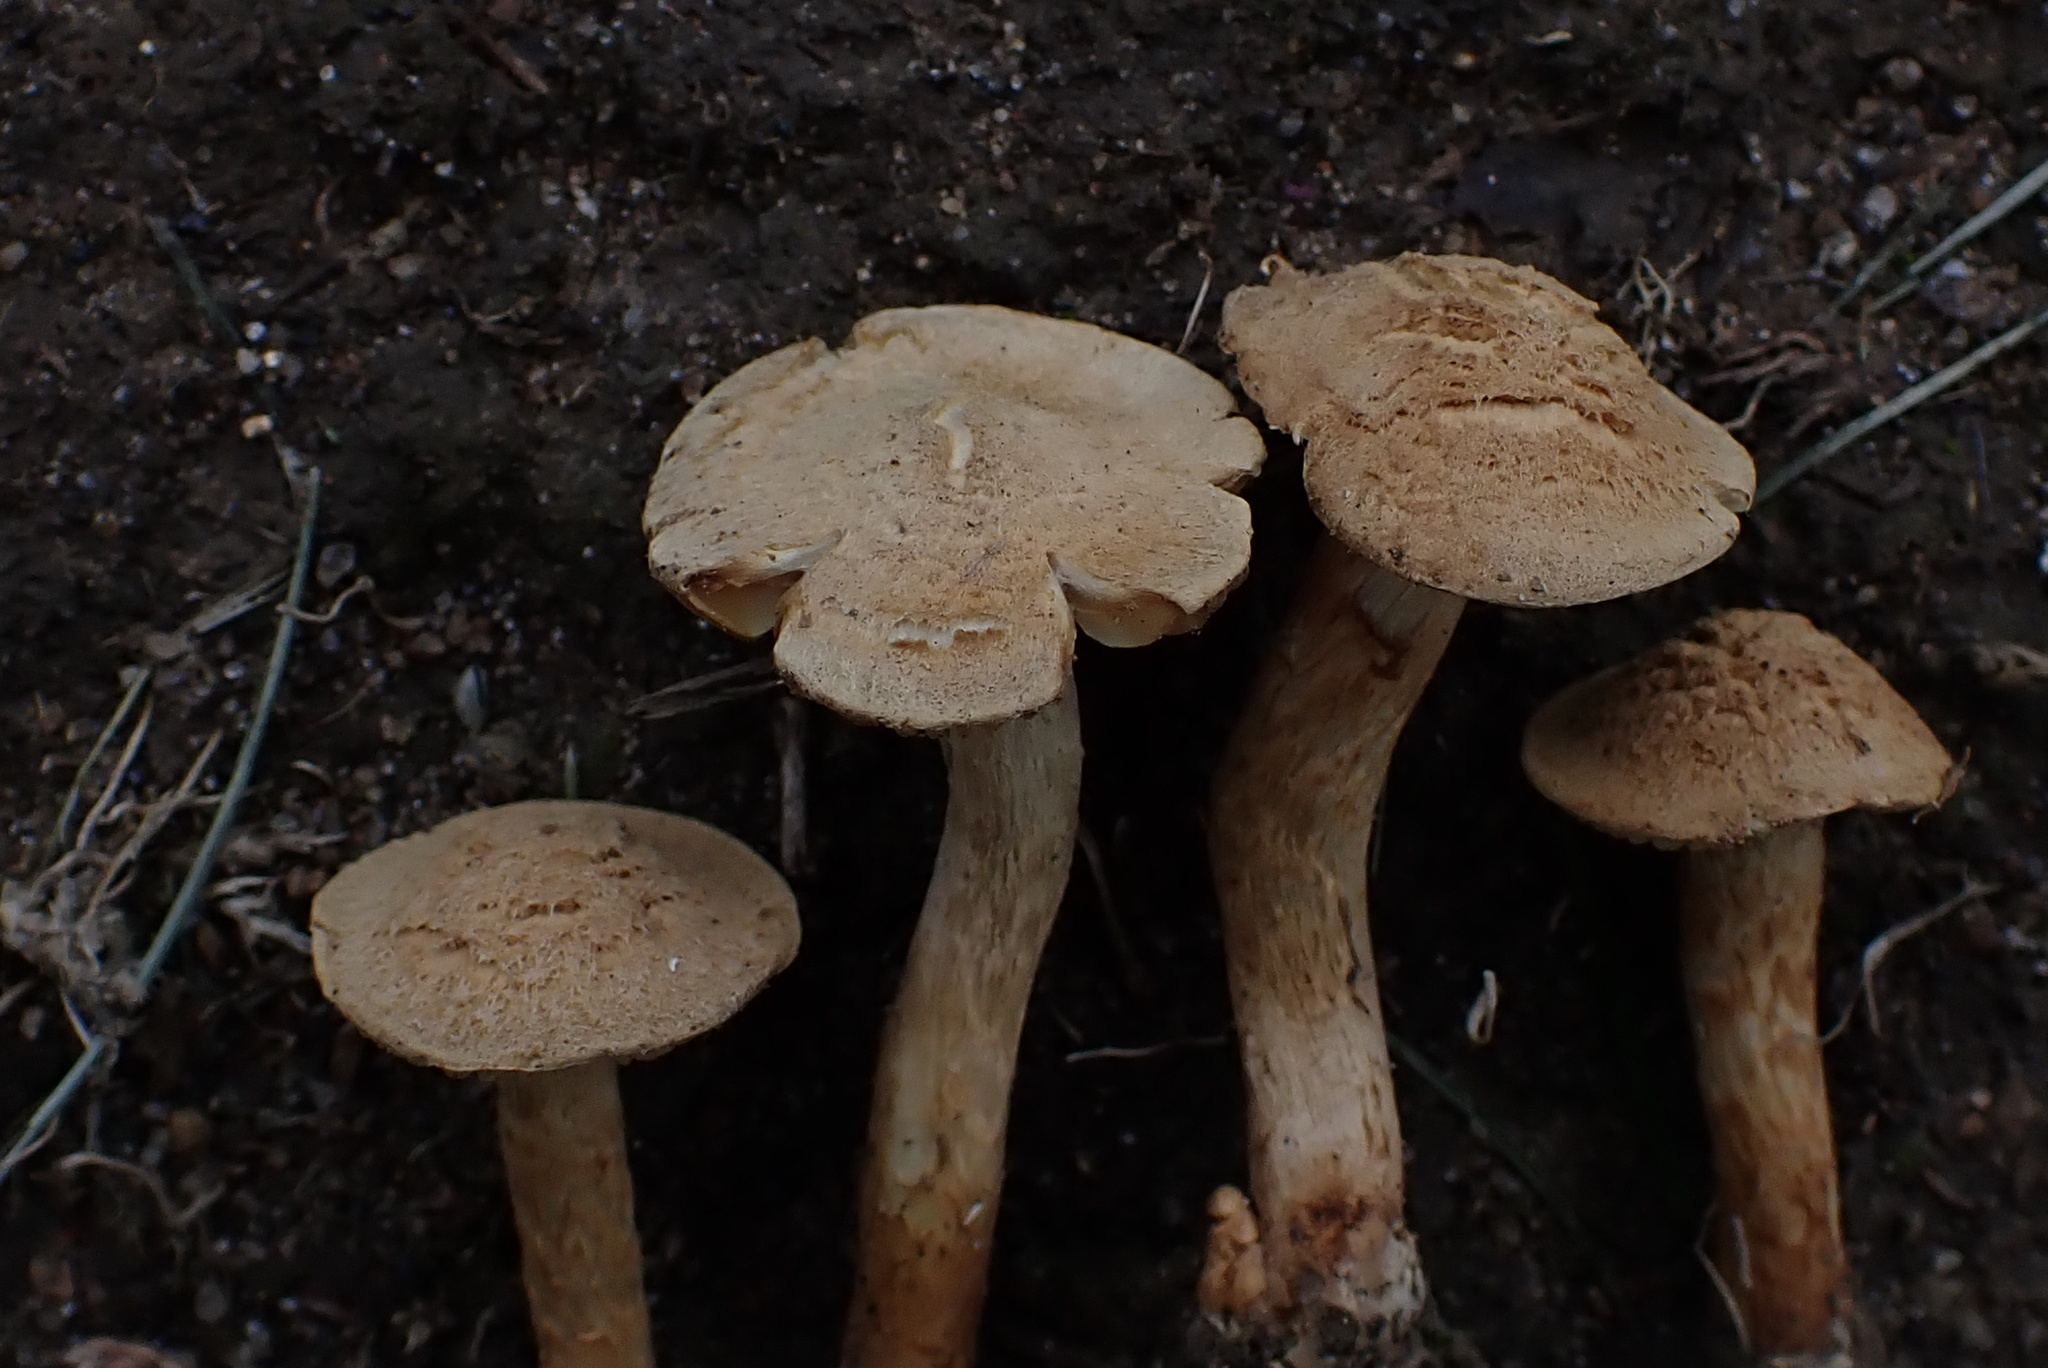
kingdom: Fungi
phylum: Basidiomycota
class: Agaricomycetes
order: Agaricales
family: Inocybaceae
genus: Mallocybe
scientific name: Mallocybe unicolor
